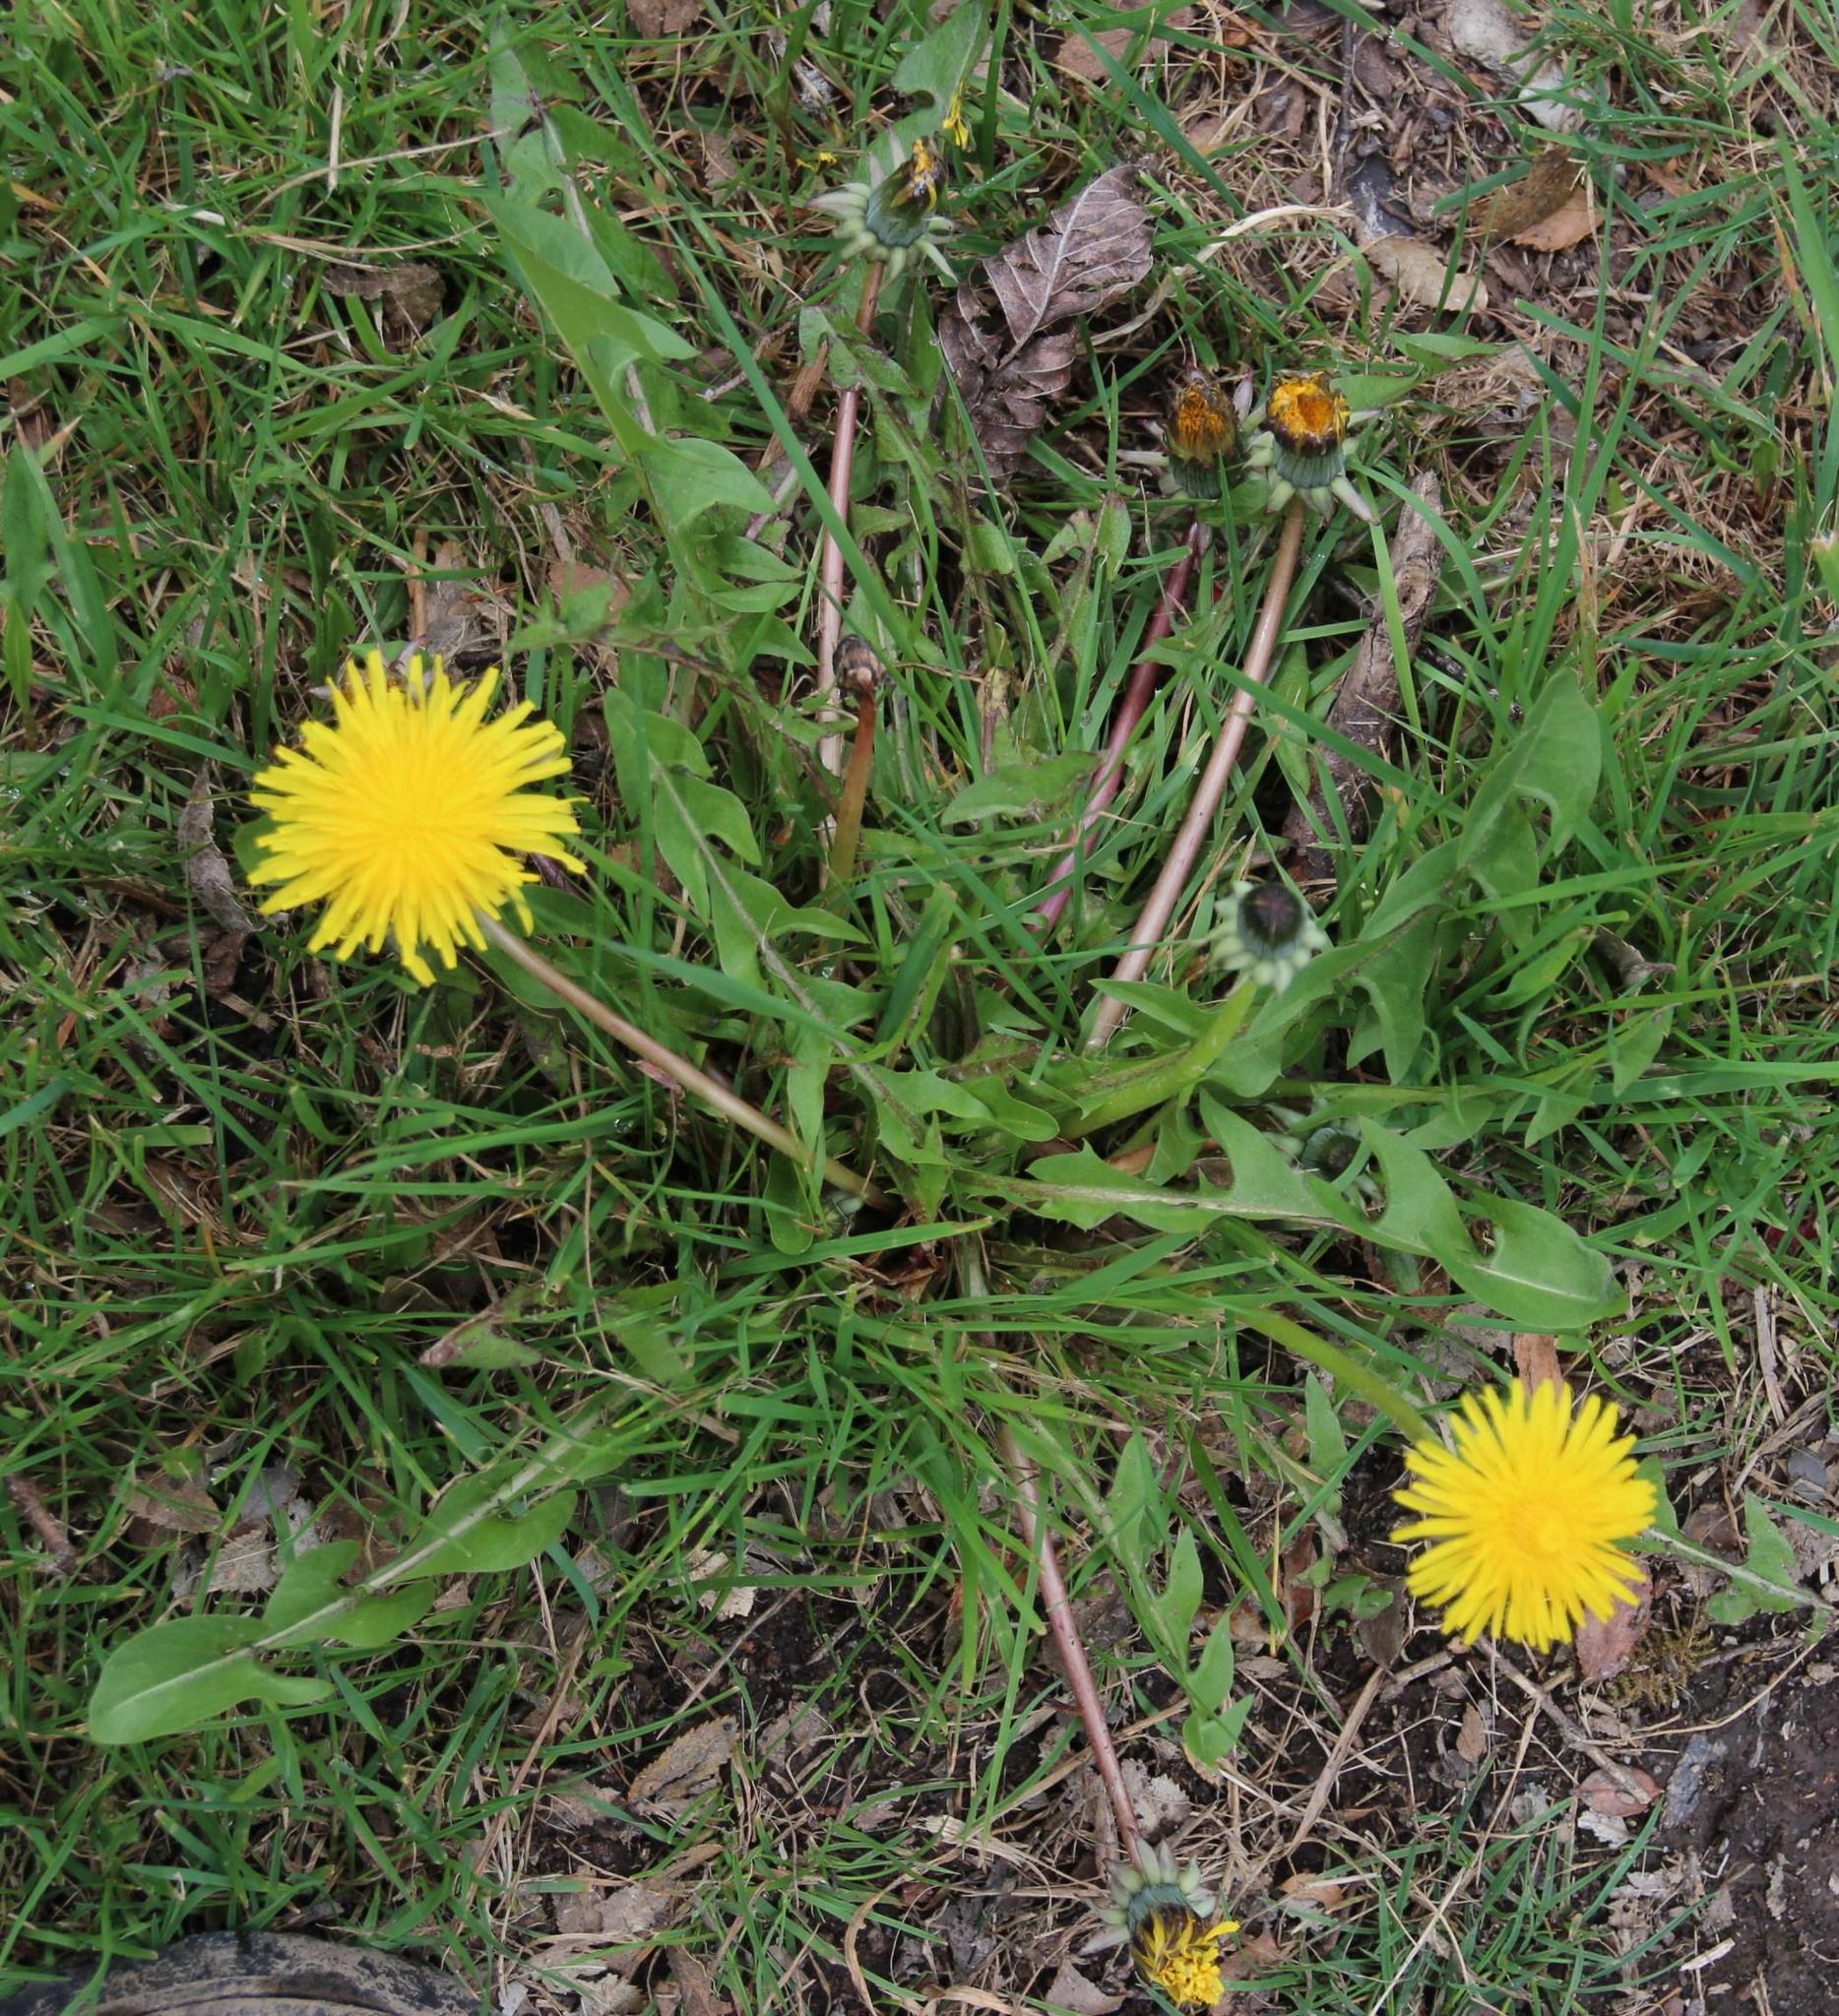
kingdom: Plantae
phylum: Tracheophyta
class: Magnoliopsida
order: Asterales
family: Asteraceae
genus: Taraxacum
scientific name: Taraxacum officinale
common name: Common dandelion
